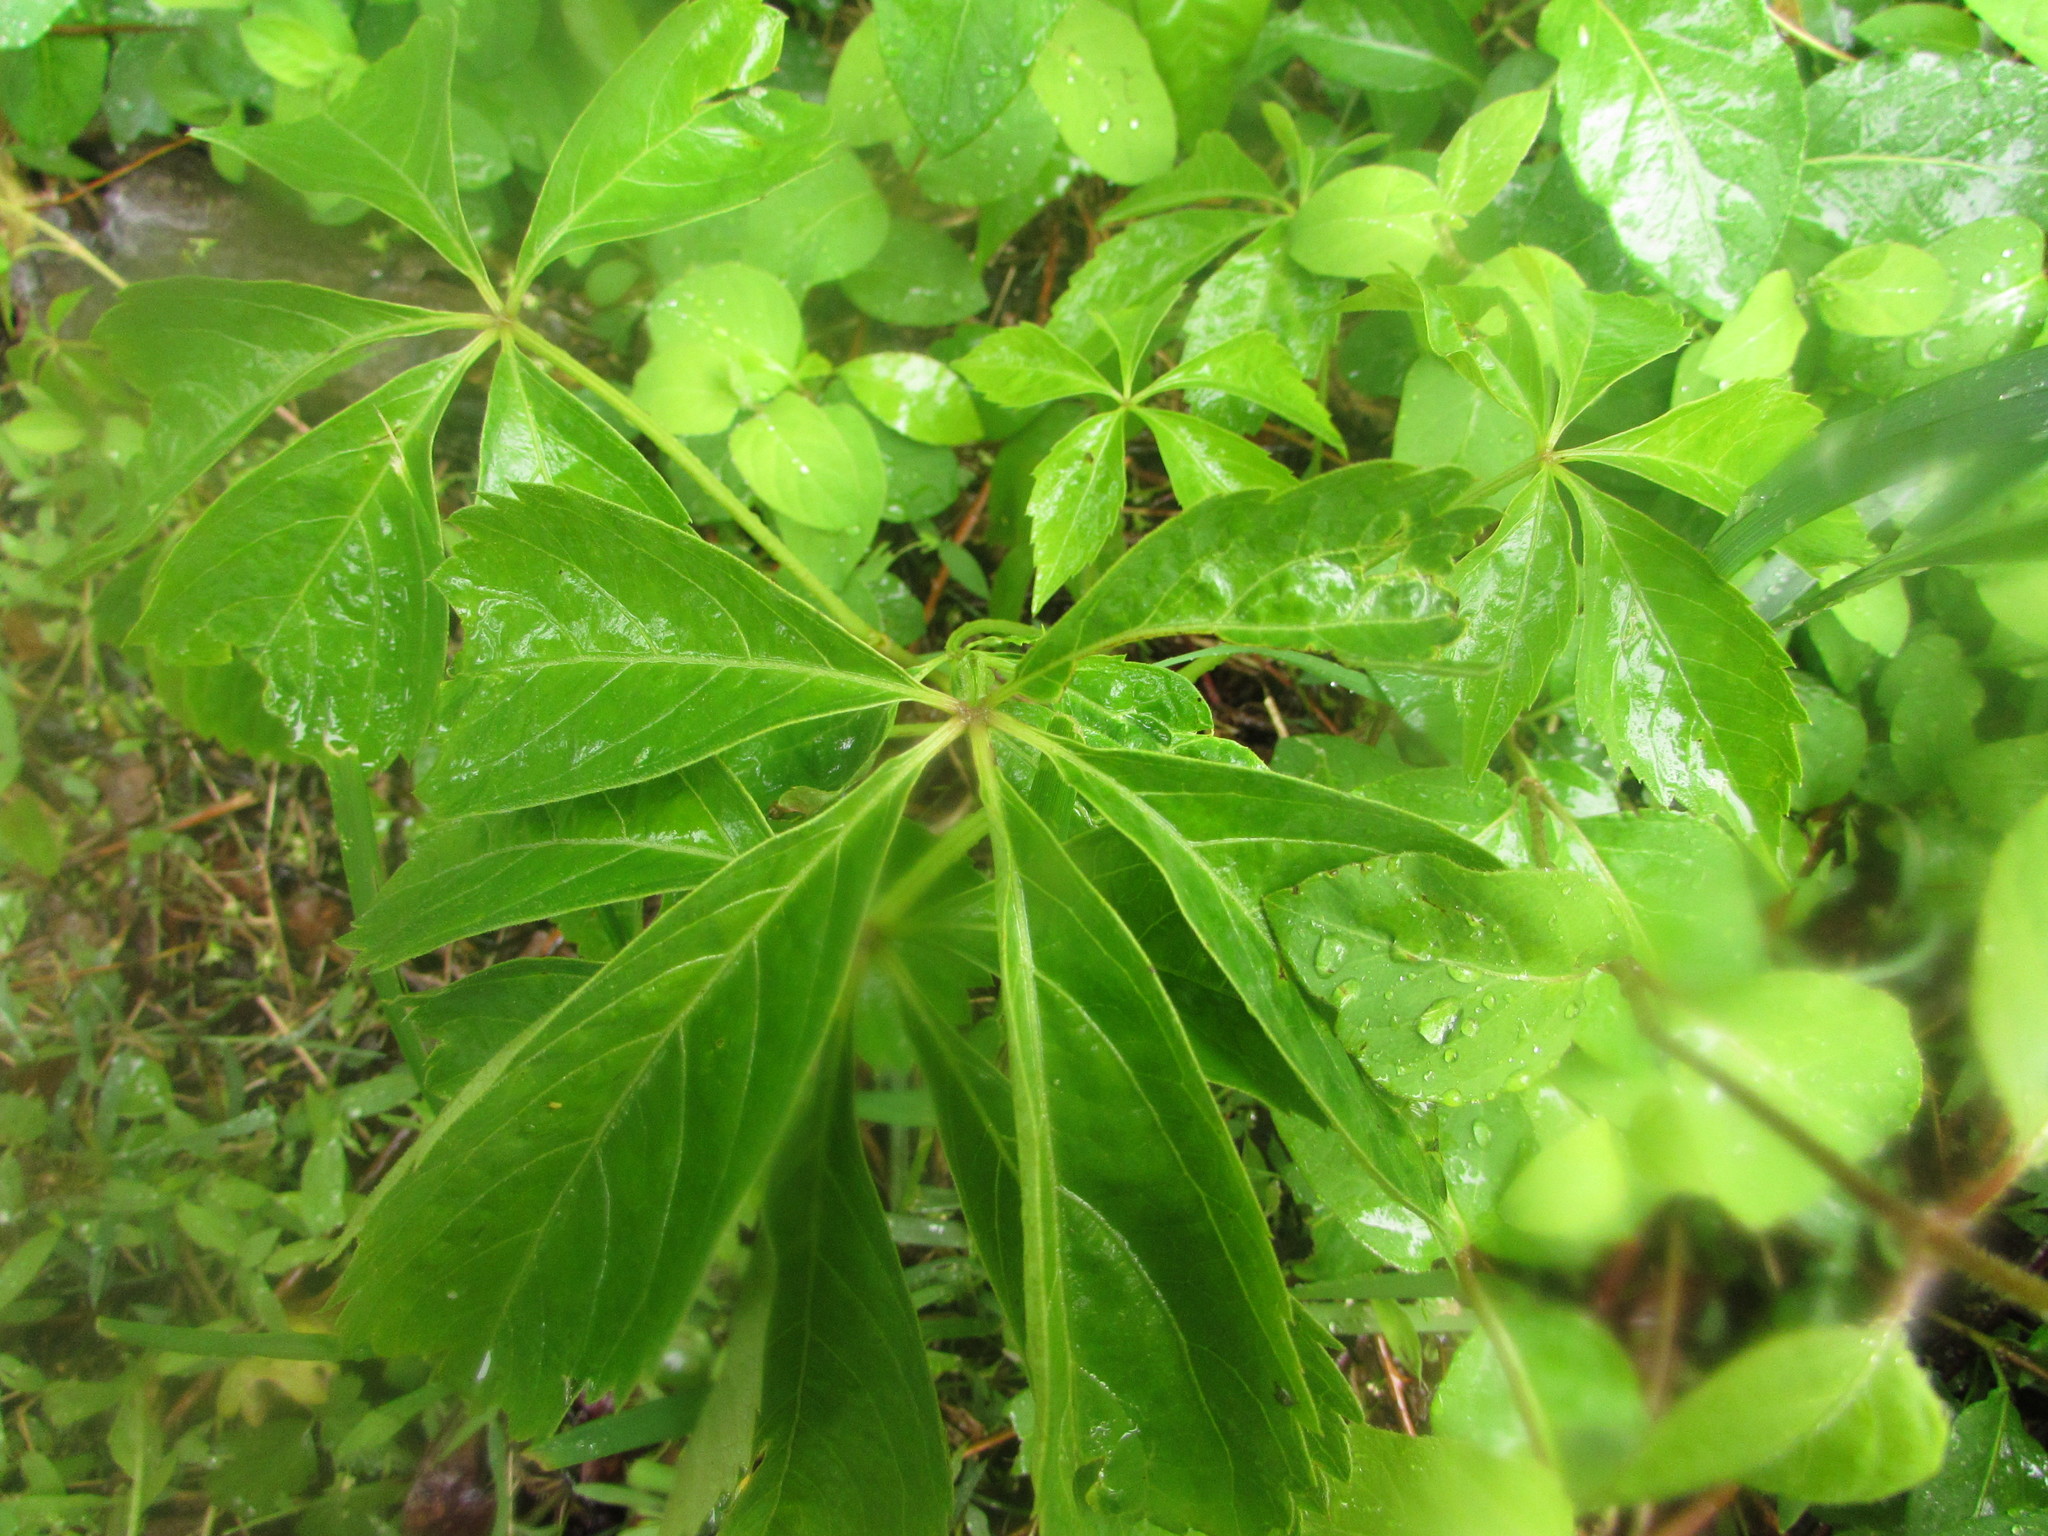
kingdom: Plantae
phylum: Tracheophyta
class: Magnoliopsida
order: Vitales
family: Vitaceae
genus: Parthenocissus
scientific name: Parthenocissus quinquefolia
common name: Virginia-creeper
